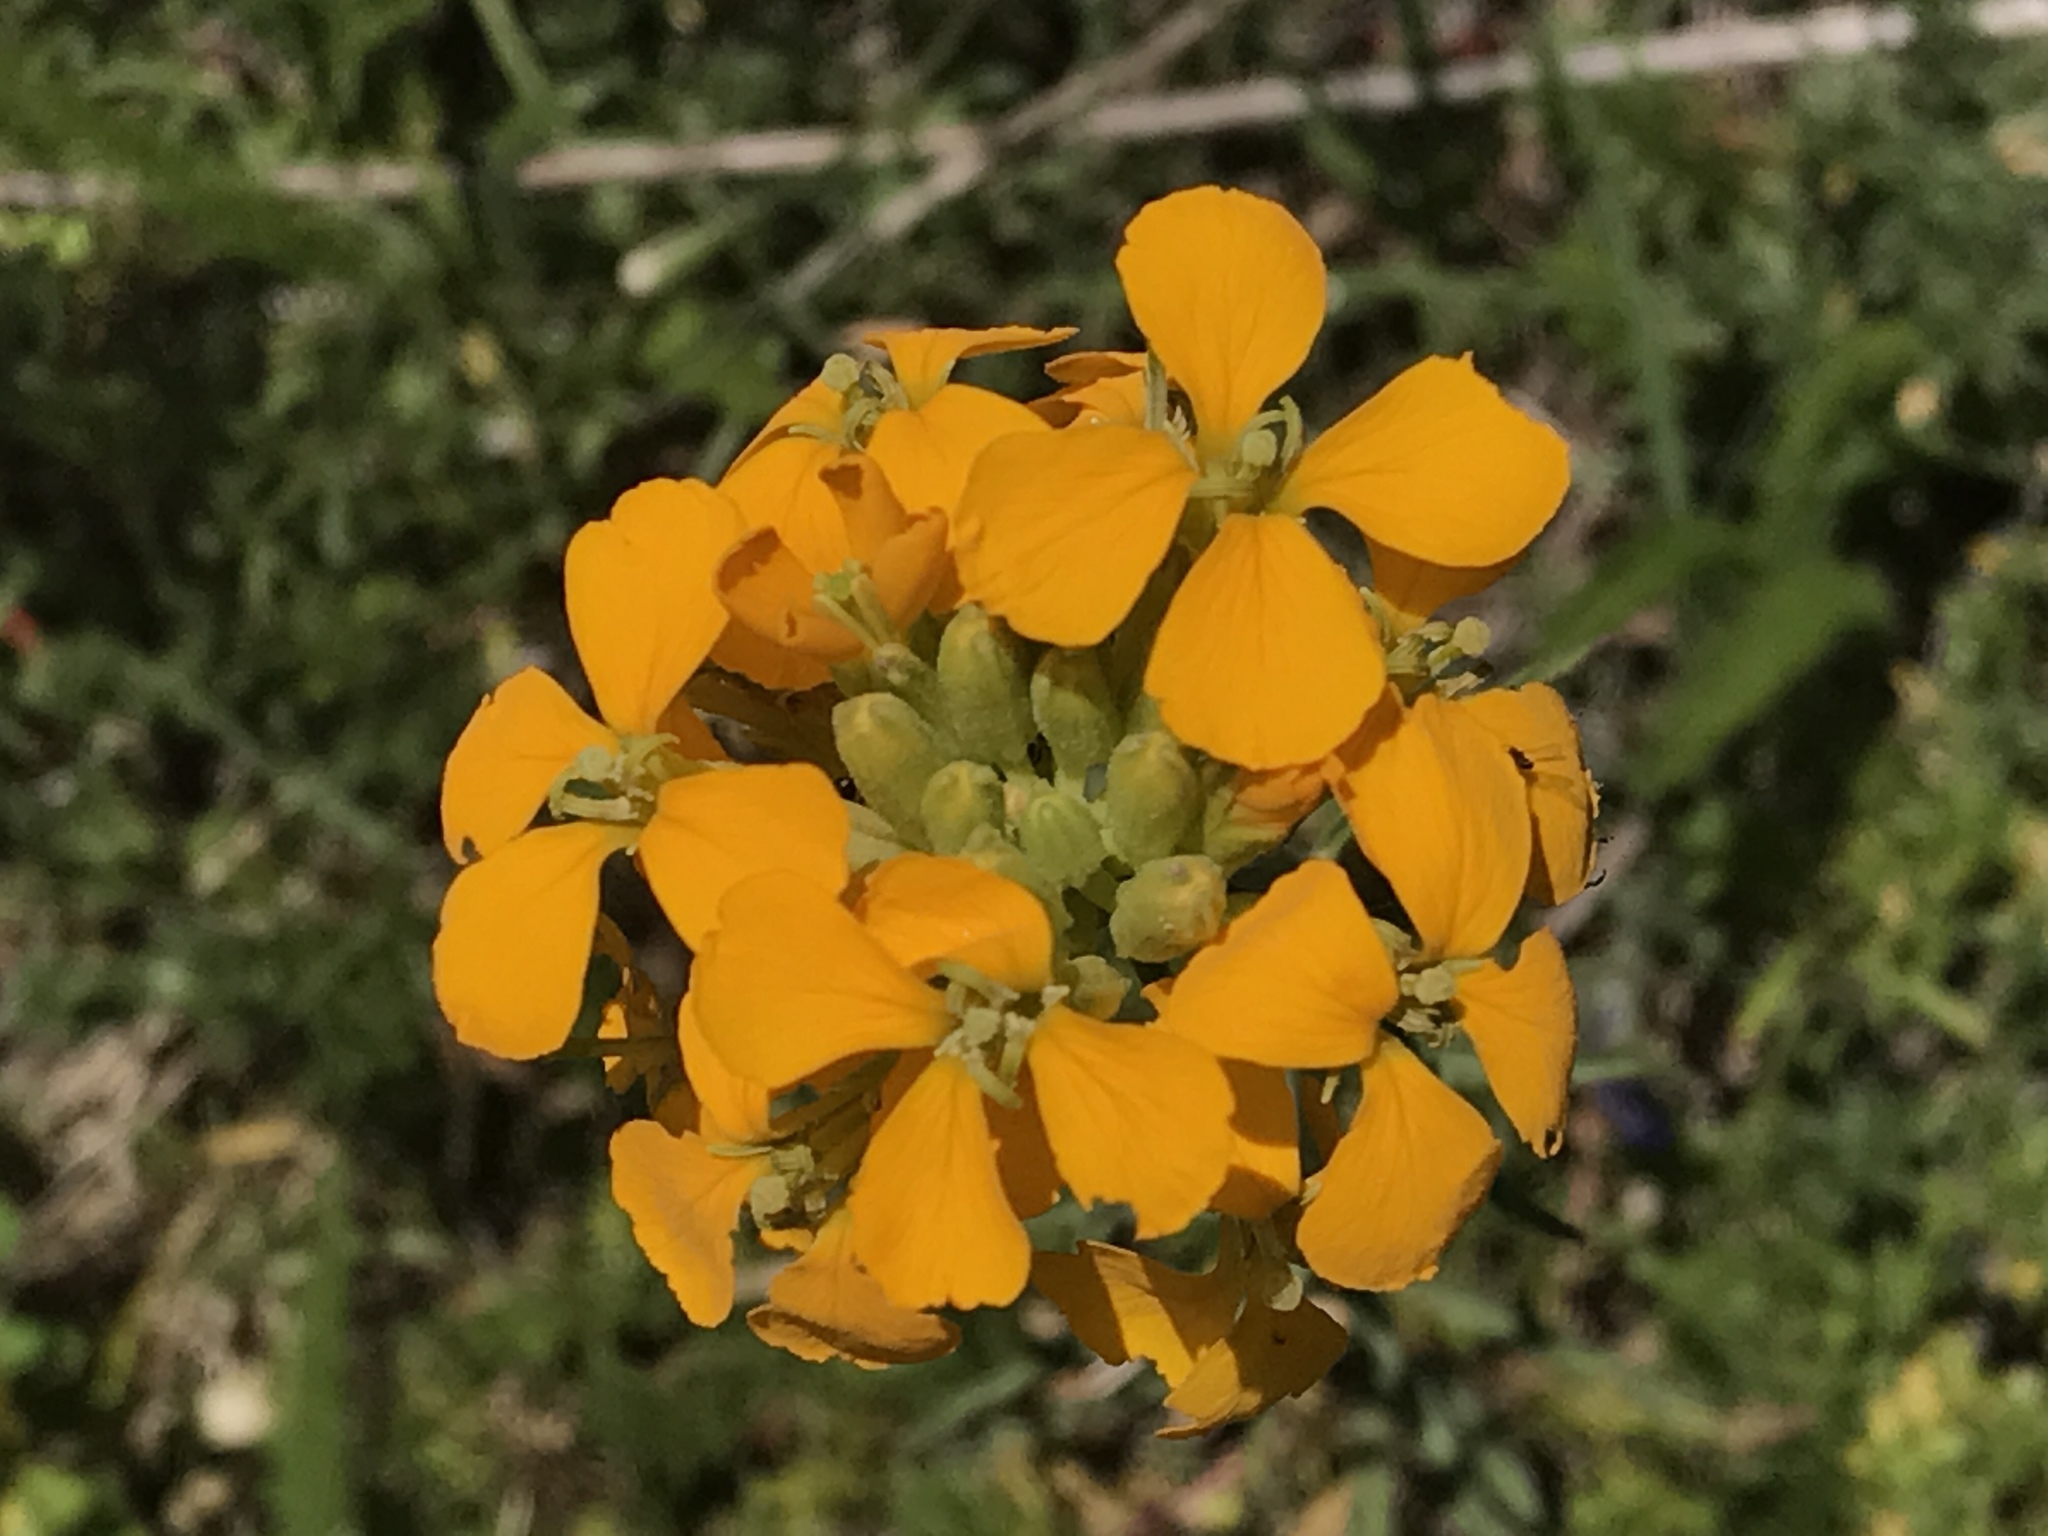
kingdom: Plantae
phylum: Tracheophyta
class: Magnoliopsida
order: Brassicales
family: Brassicaceae
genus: Erysimum
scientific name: Erysimum capitatum
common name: Western wallflower
